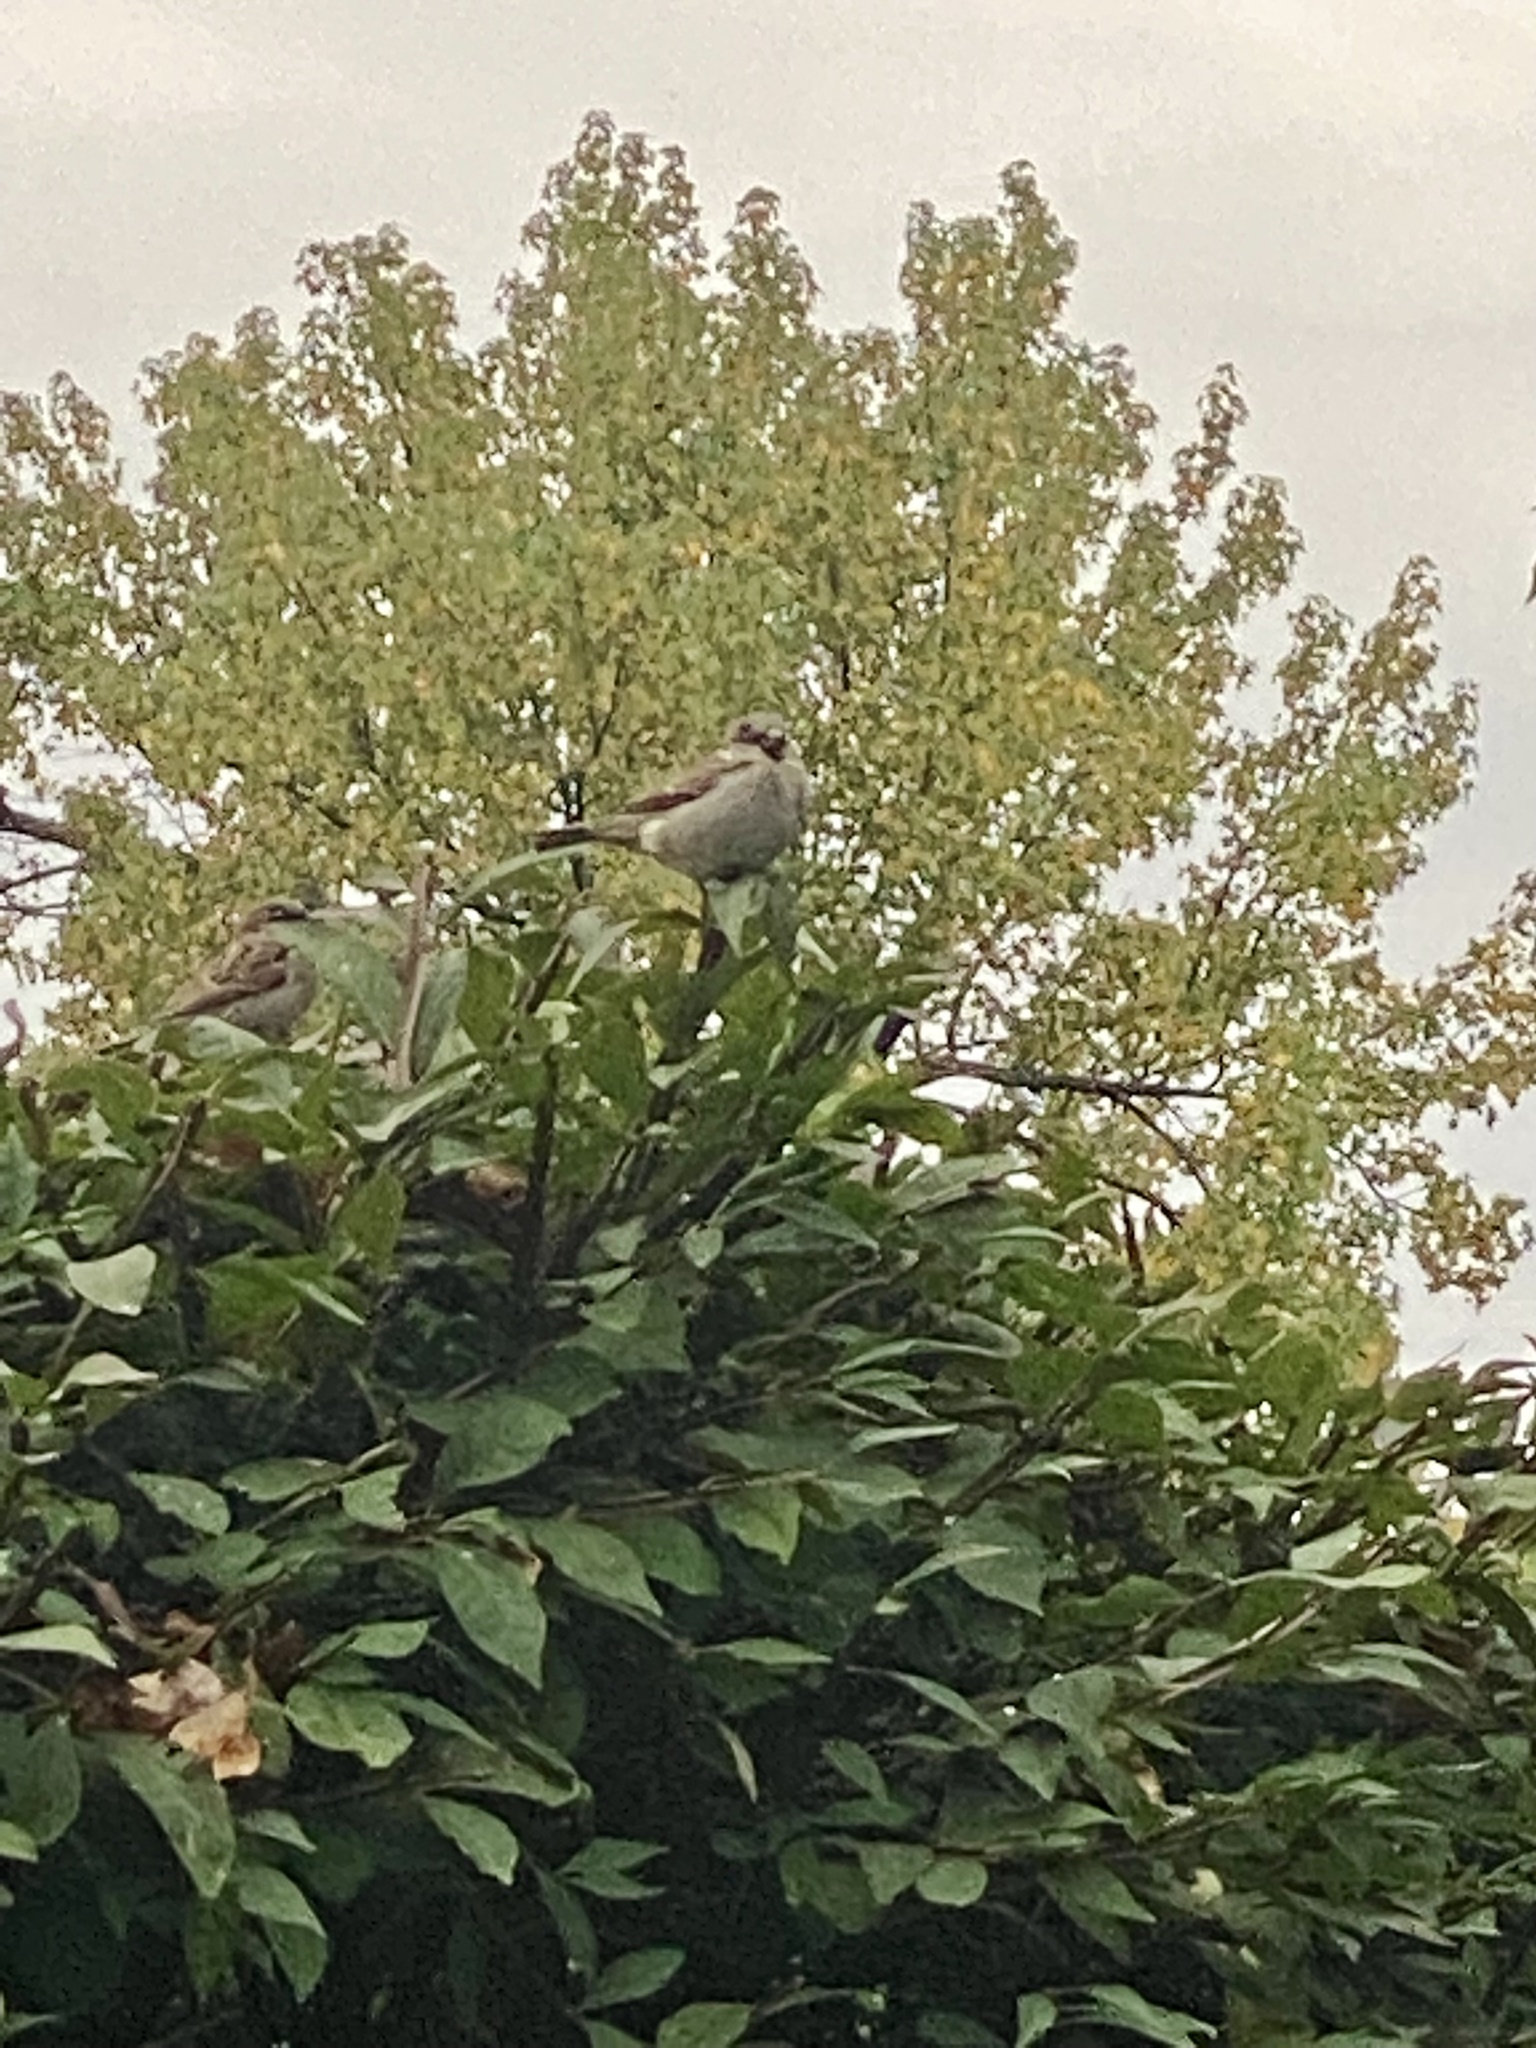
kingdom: Animalia
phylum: Chordata
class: Aves
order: Passeriformes
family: Passeridae
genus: Passer
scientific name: Passer domesticus
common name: House sparrow
